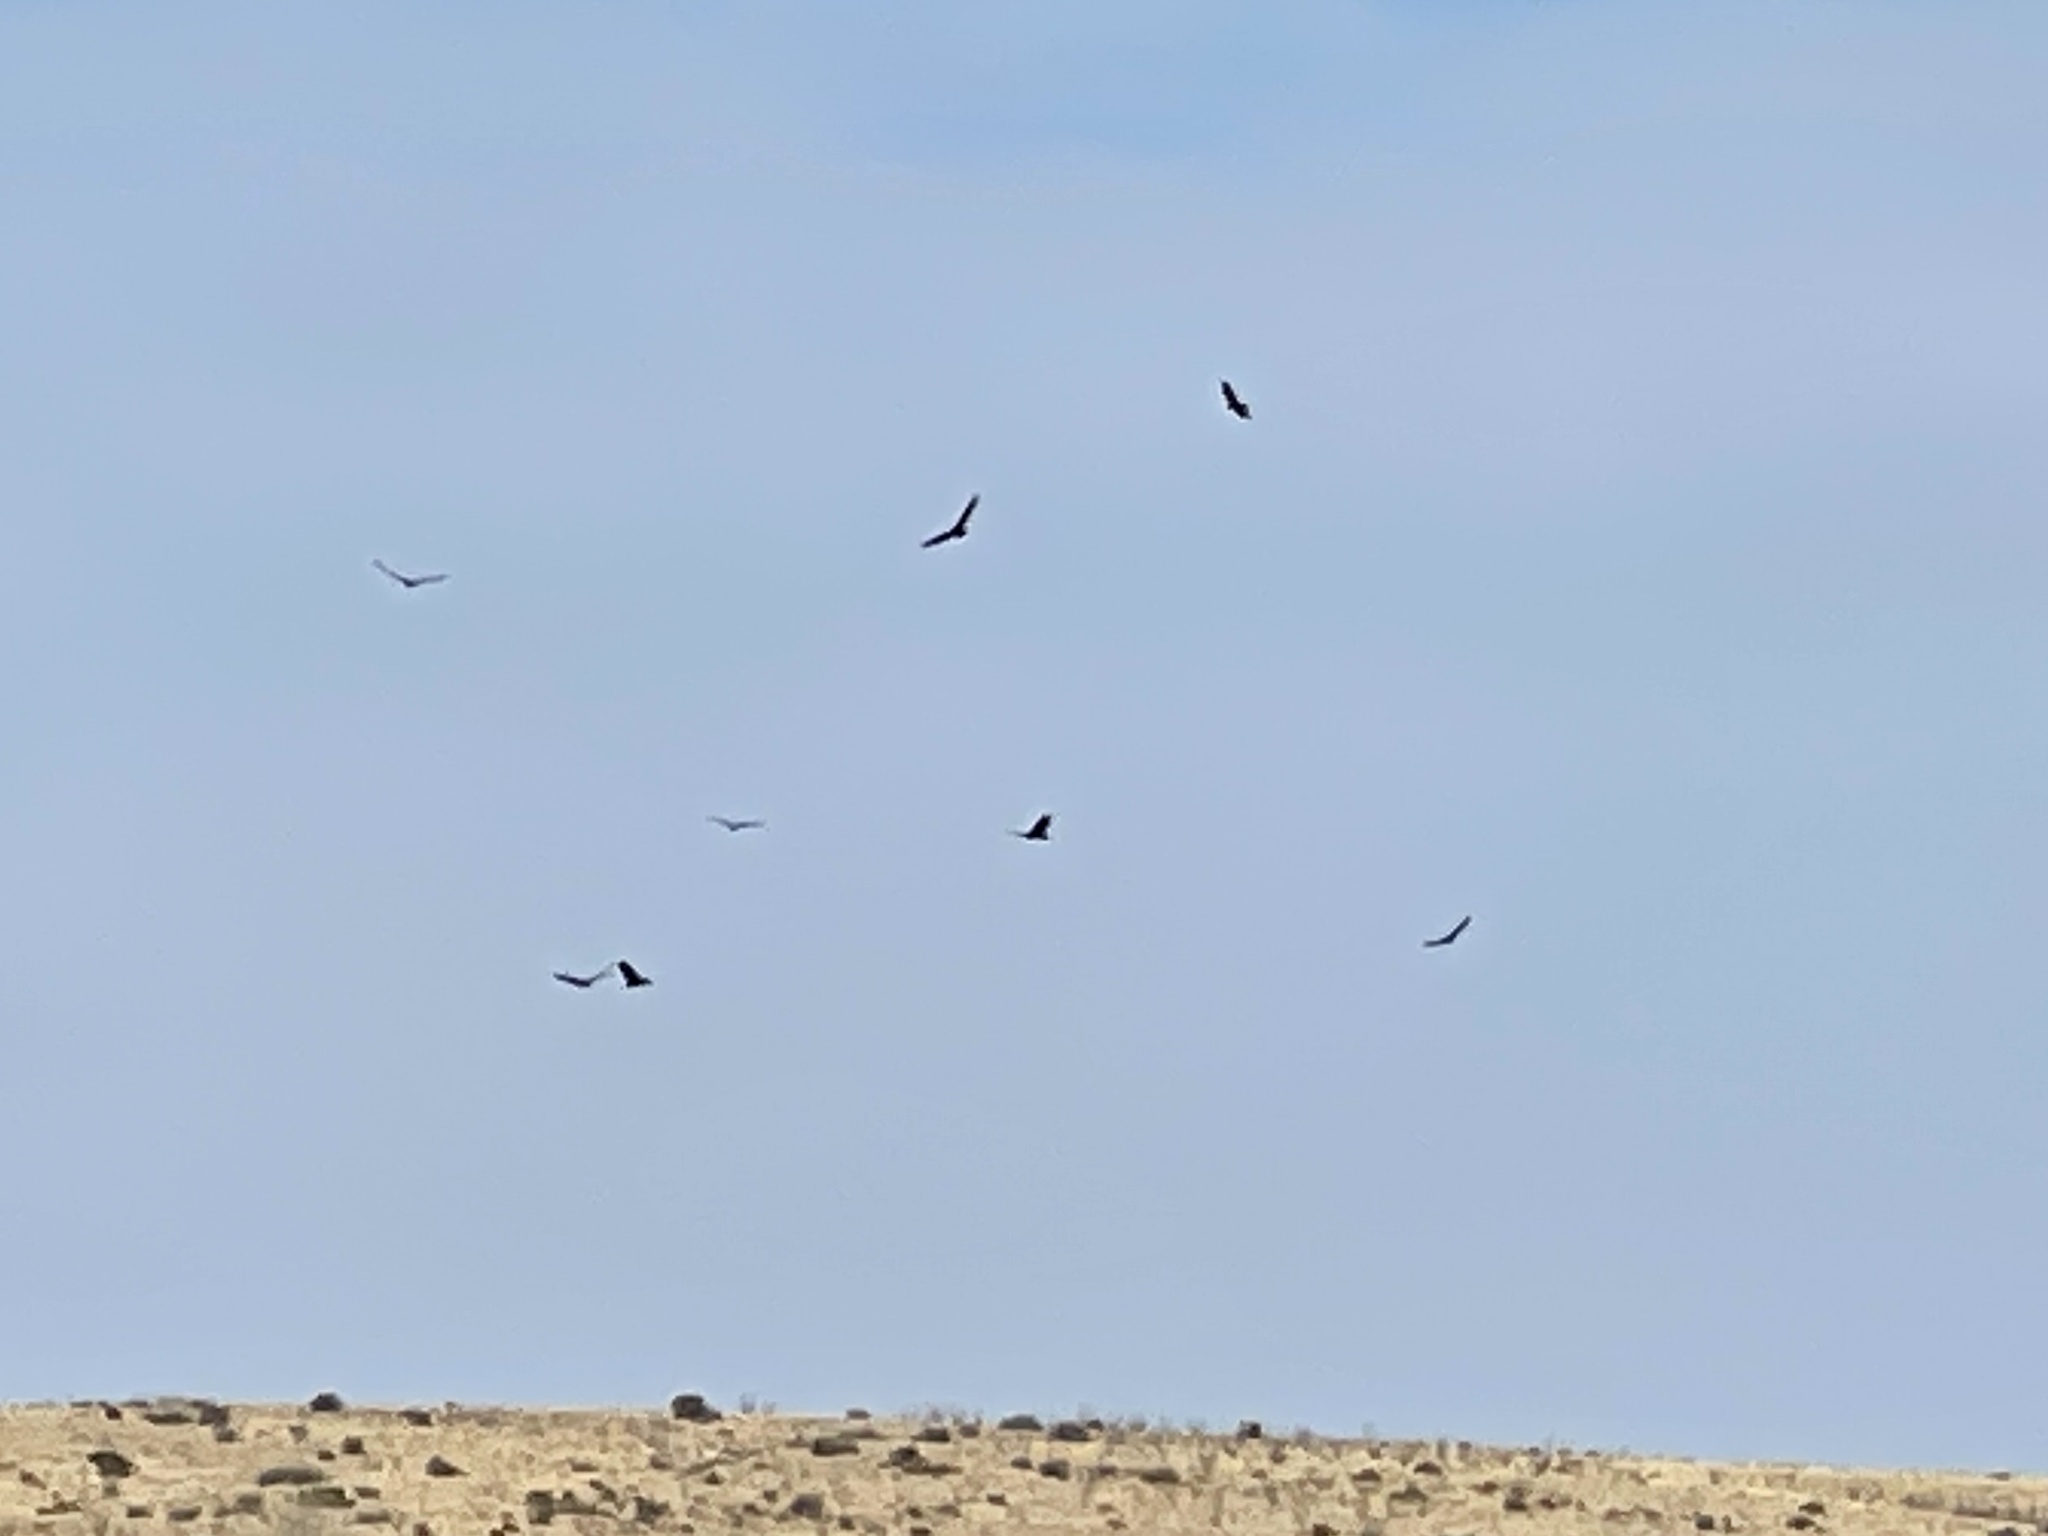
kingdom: Animalia
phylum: Chordata
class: Aves
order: Accipitriformes
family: Cathartidae
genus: Cathartes
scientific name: Cathartes aura
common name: Turkey vulture
